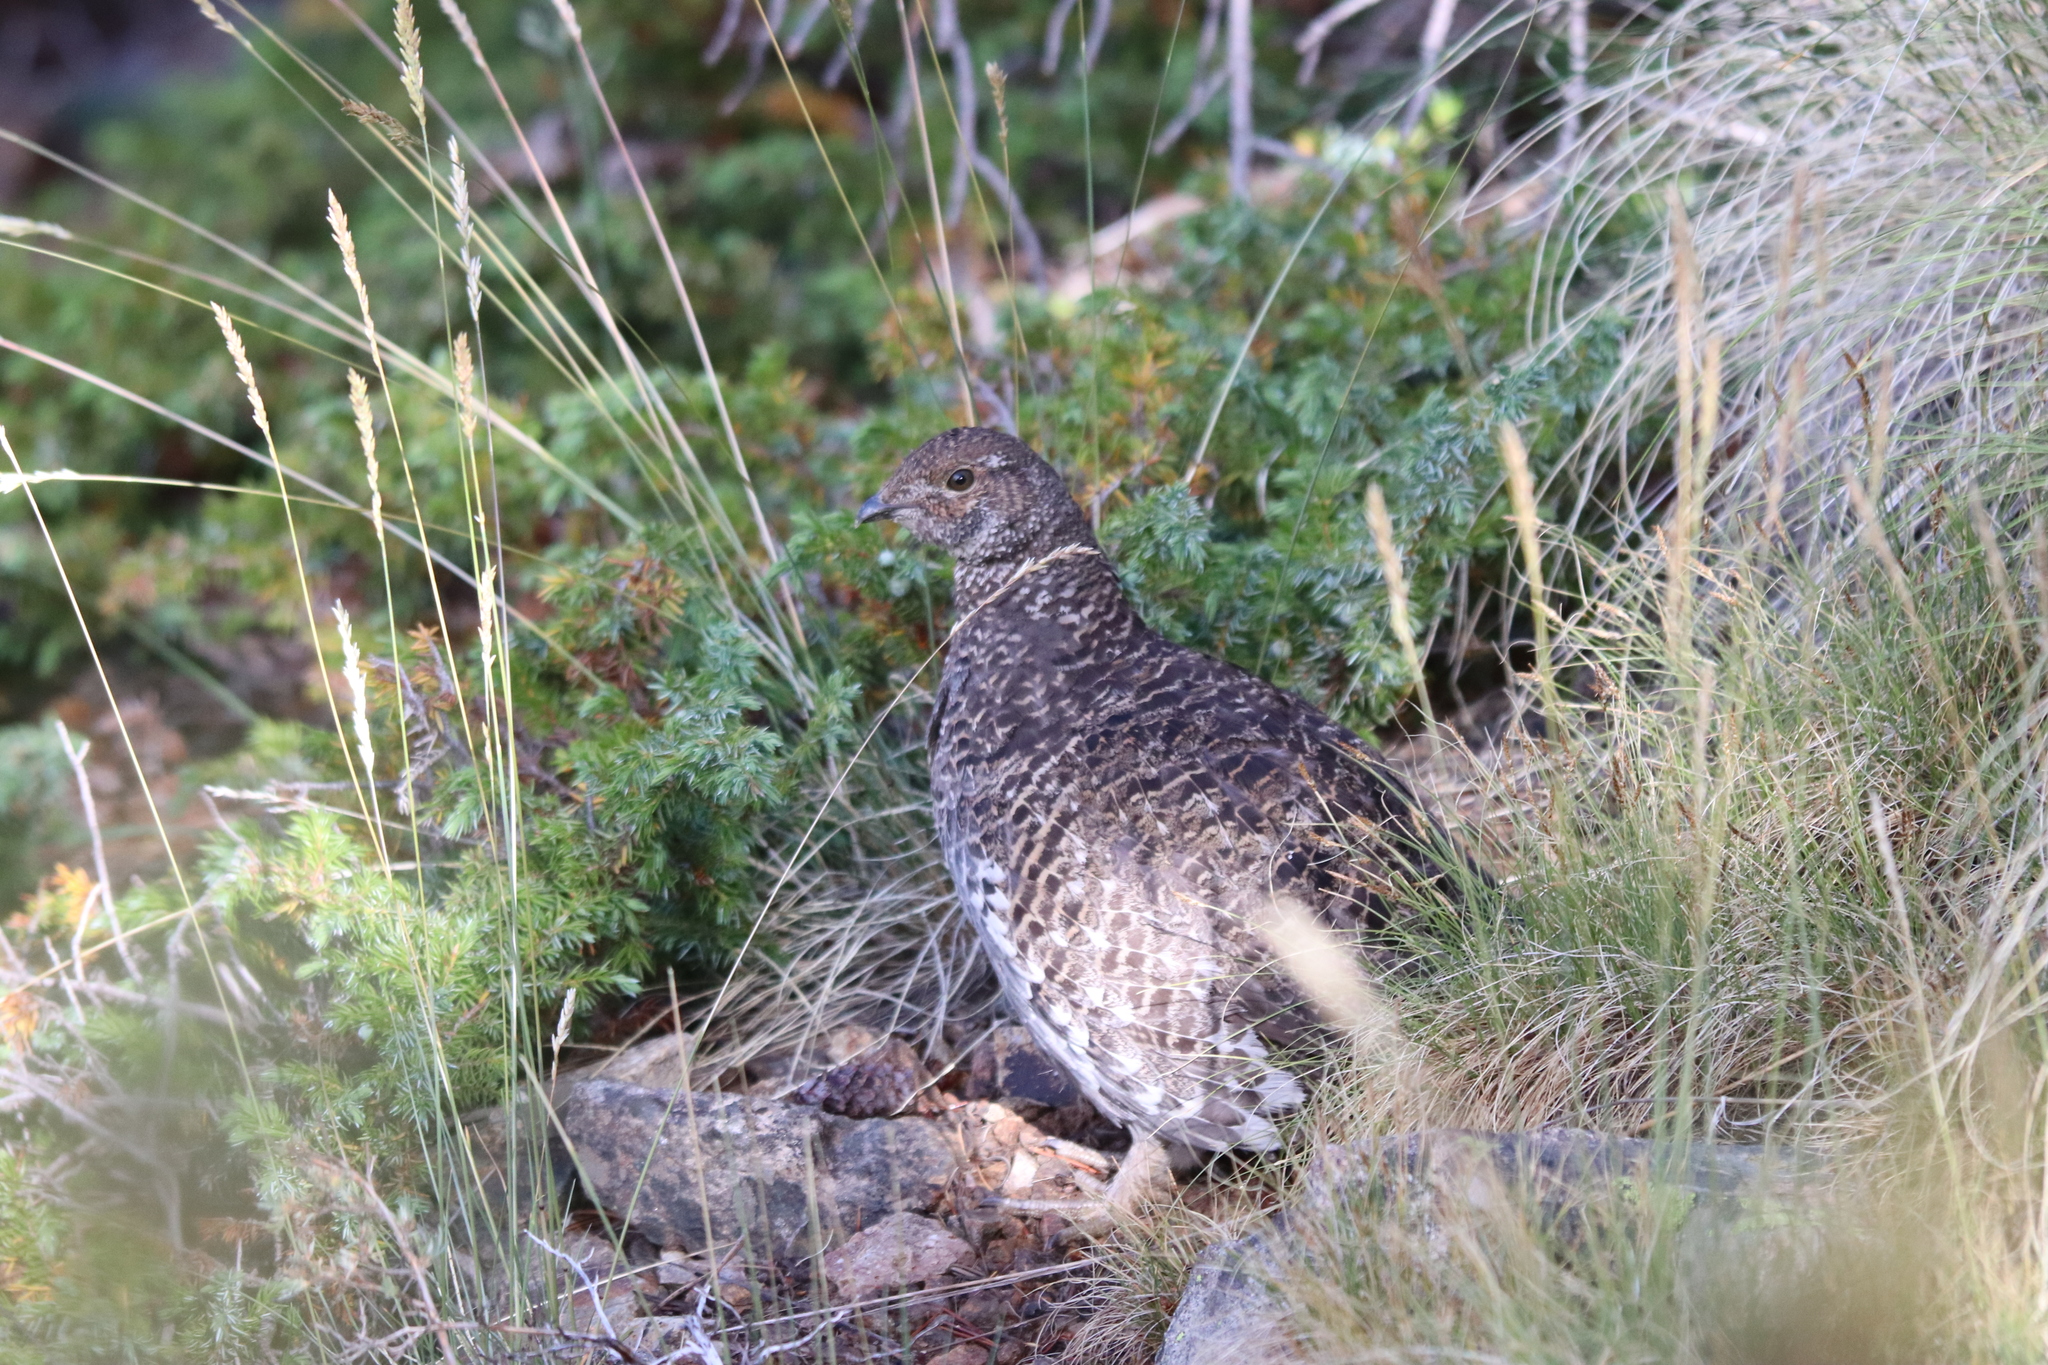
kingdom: Animalia
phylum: Chordata
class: Aves
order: Galliformes
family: Phasianidae
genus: Dendragapus
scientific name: Dendragapus obscurus
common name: Dusky grouse
